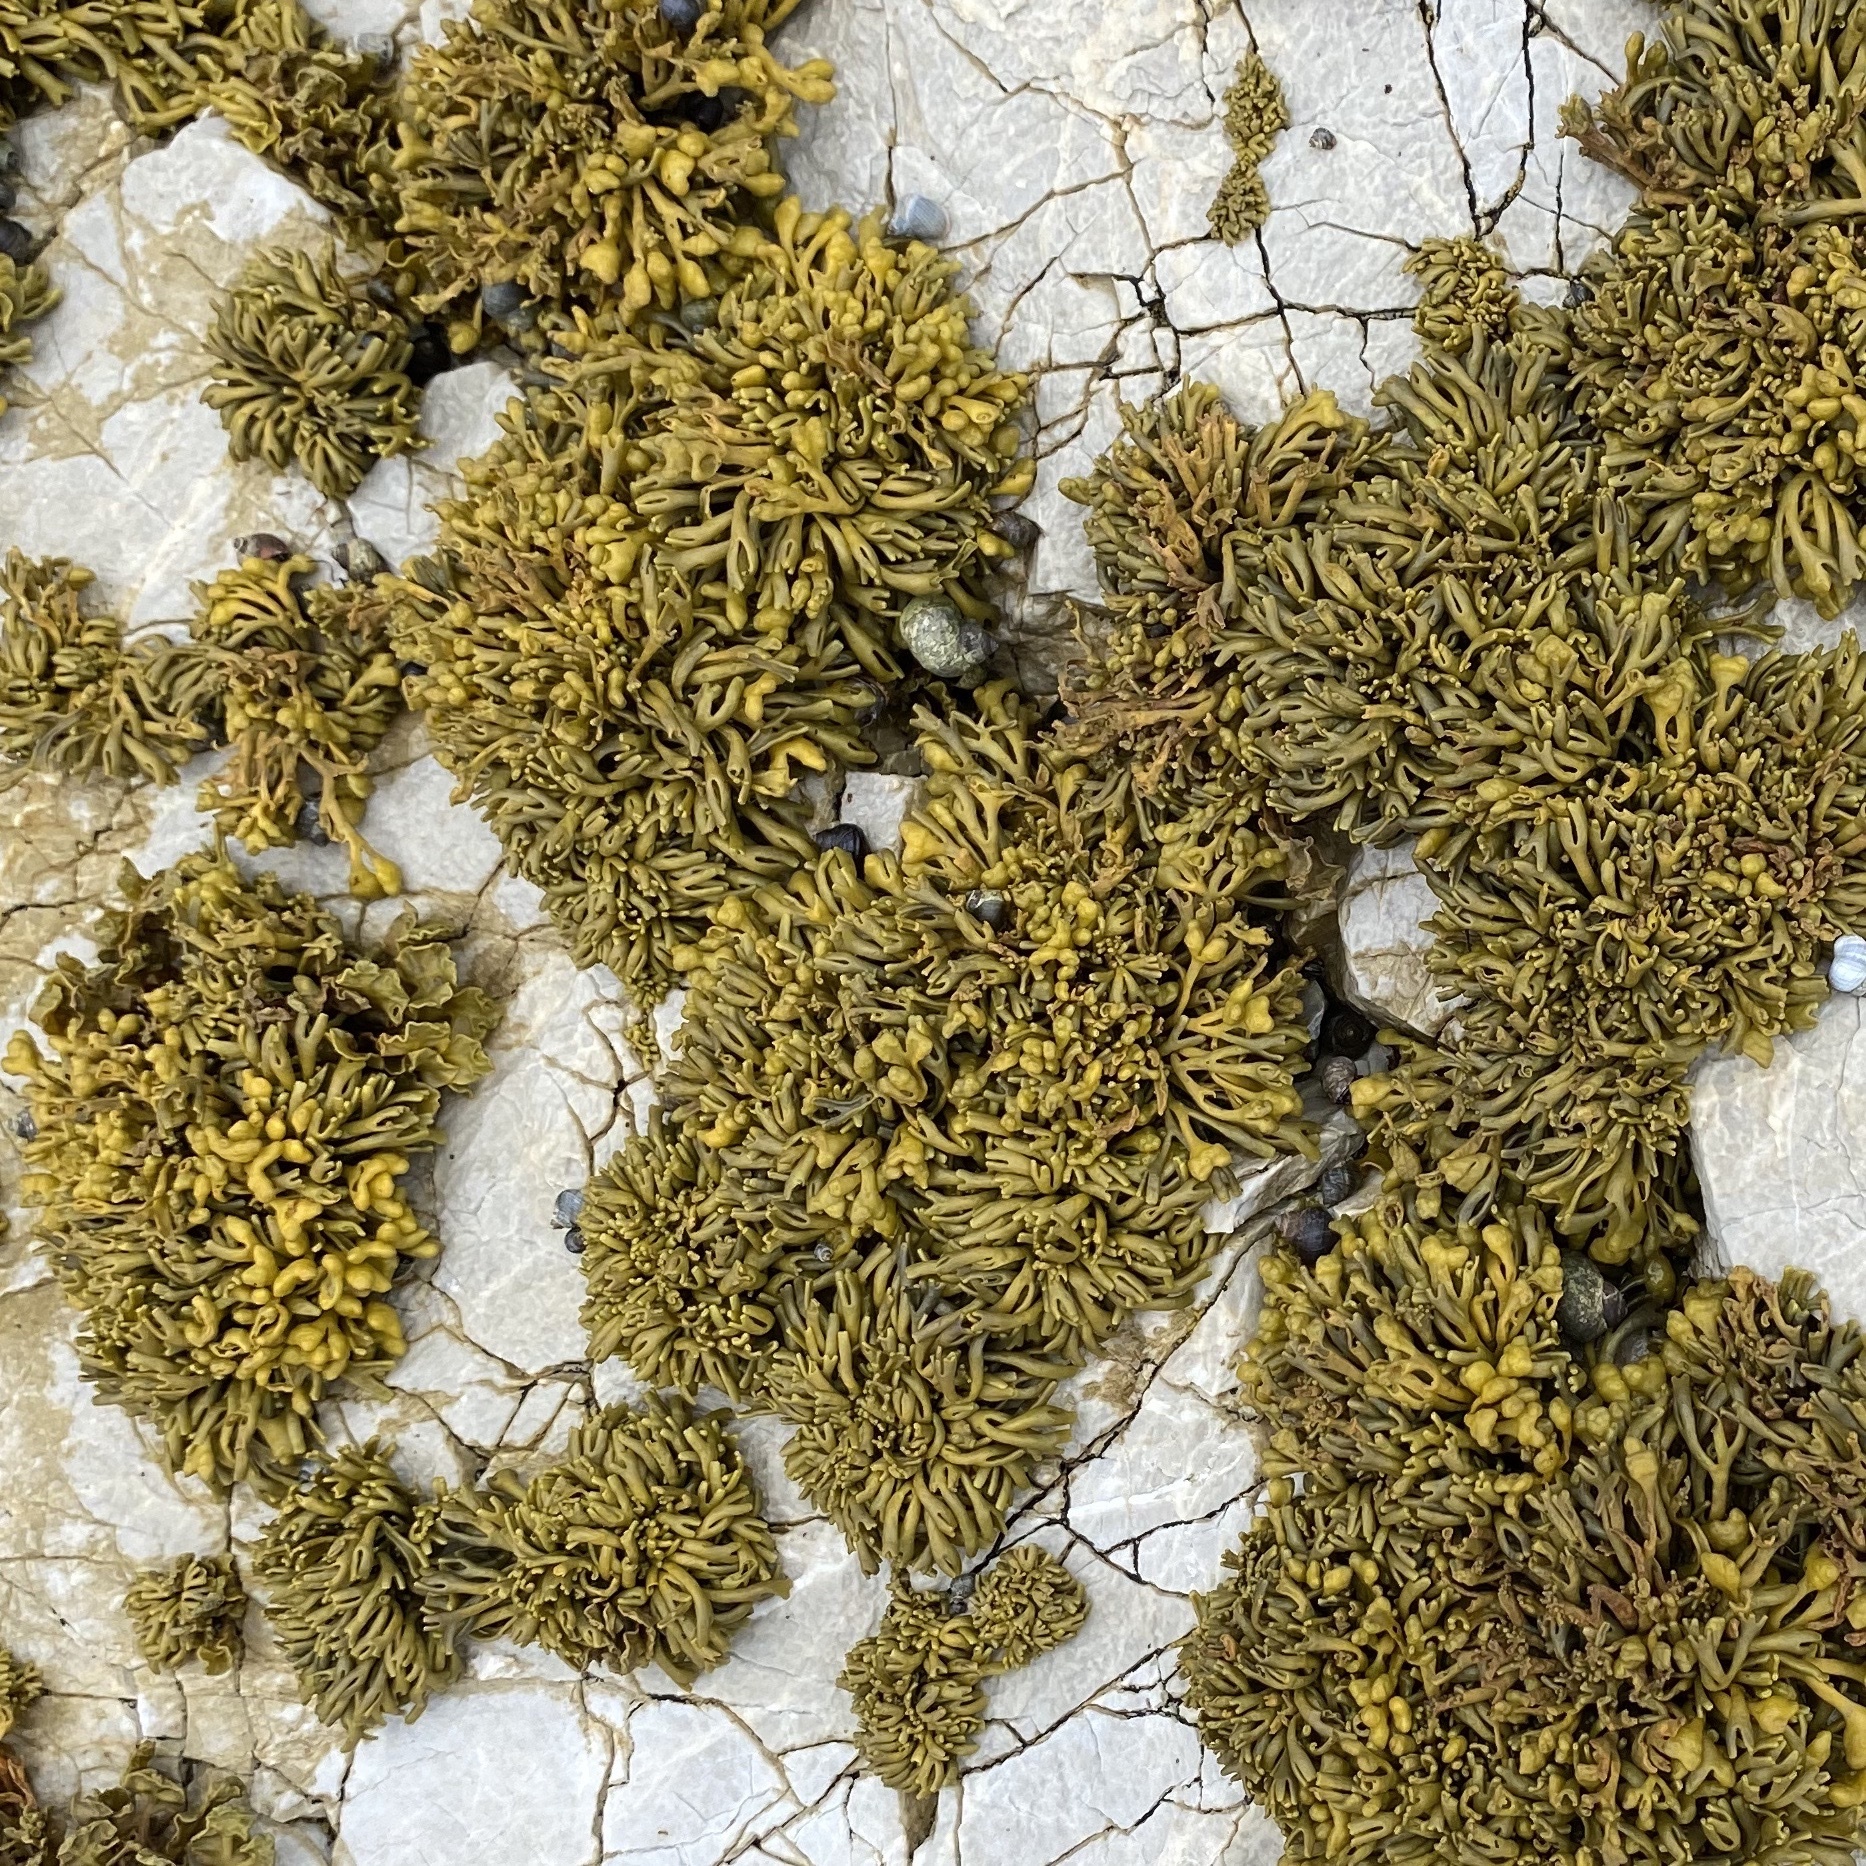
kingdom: Chromista
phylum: Ochrophyta
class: Phaeophyceae
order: Fucales
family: Fucaceae
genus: Pelvetia
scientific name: Pelvetia canaliculata
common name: Channelled wrack
